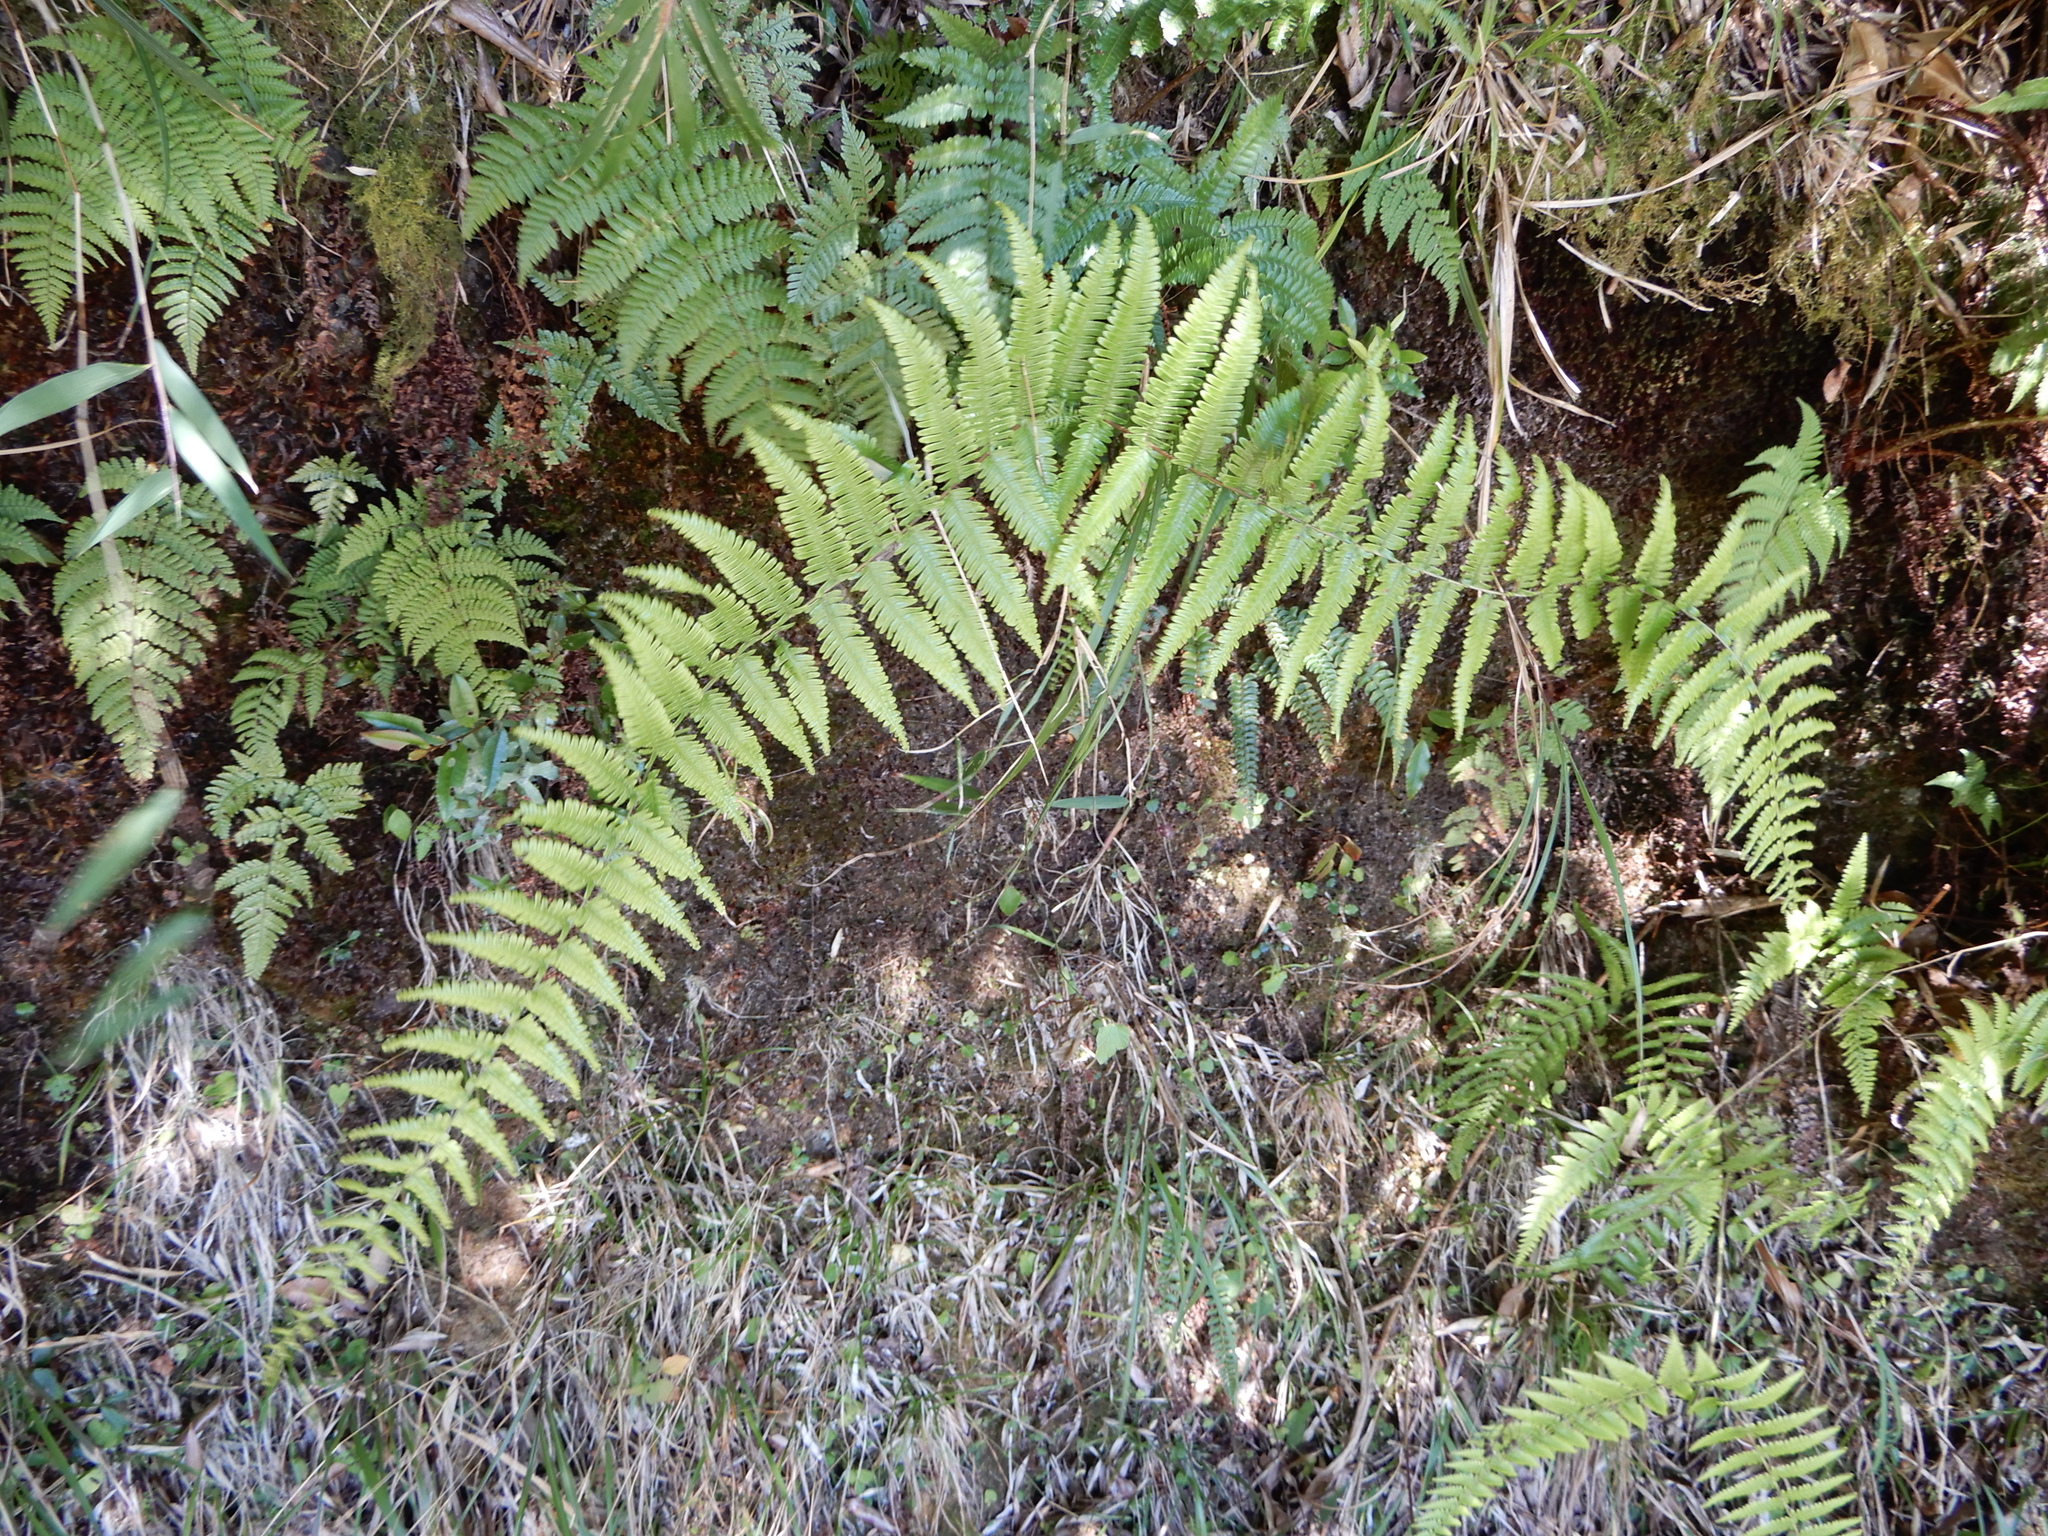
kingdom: Plantae
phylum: Tracheophyta
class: Polypodiopsida
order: Gleicheniales
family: Gleicheniaceae
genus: Diplopterygium
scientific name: Diplopterygium glaucum
